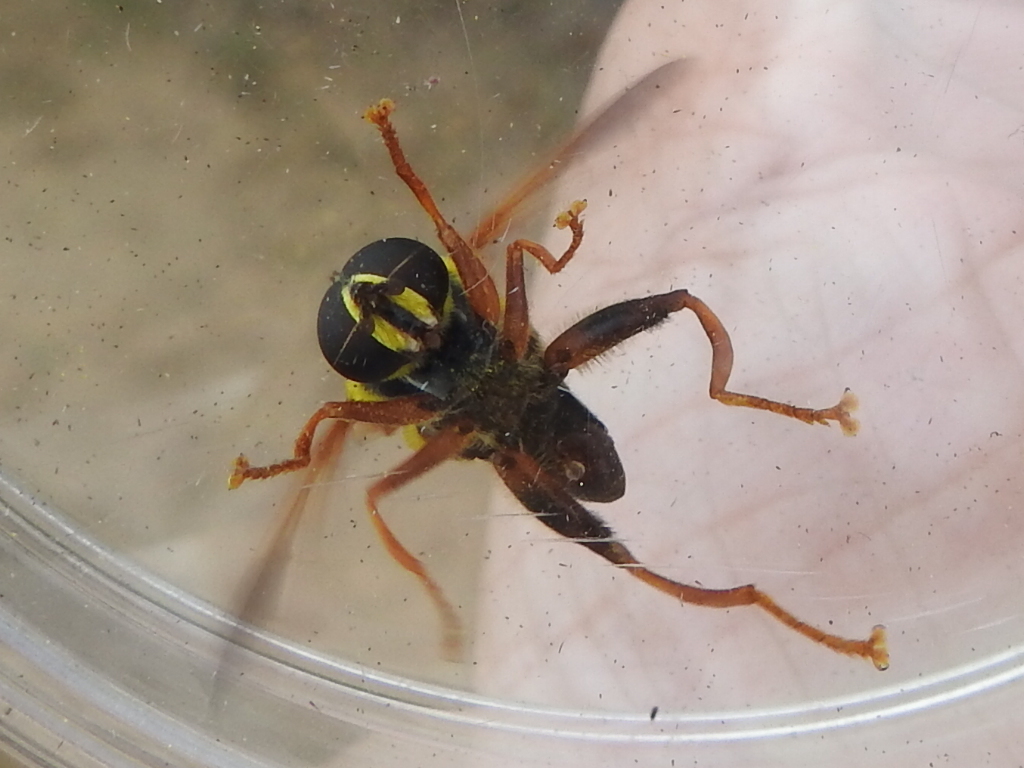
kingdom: Animalia
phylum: Arthropoda
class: Insecta
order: Diptera
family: Syrphidae
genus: Meromacrus
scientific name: Meromacrus acutus
